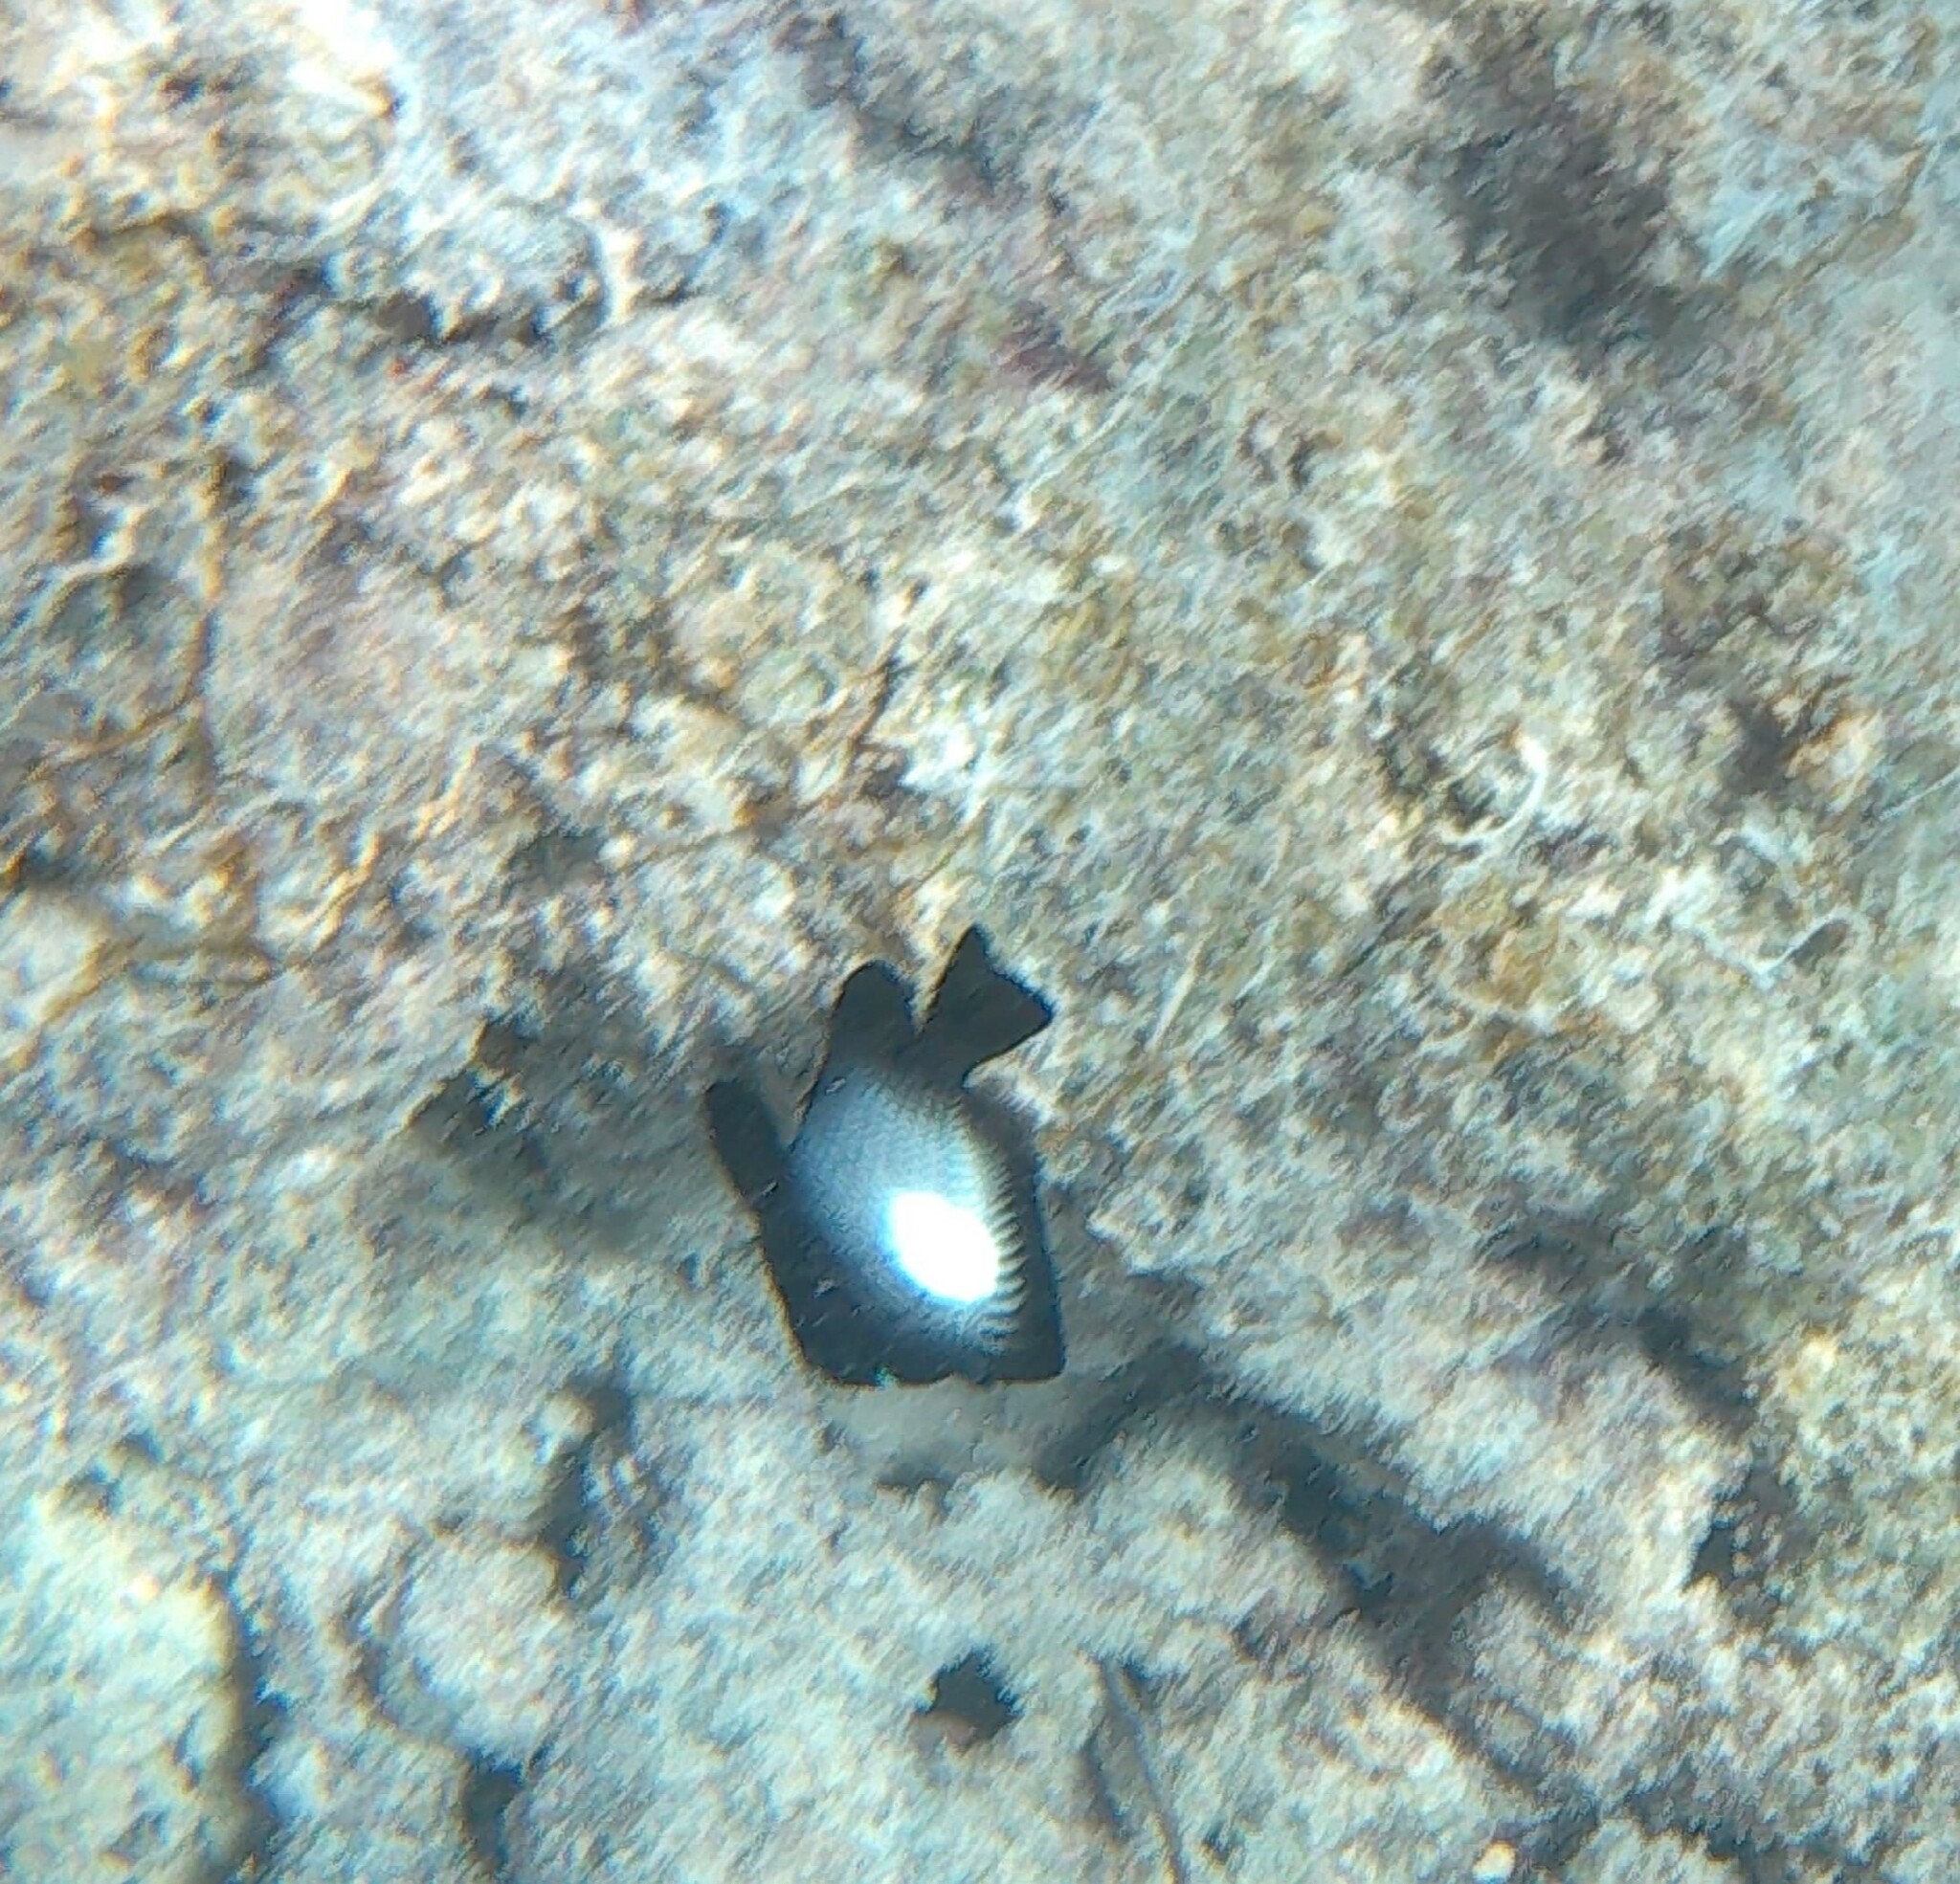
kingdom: Animalia
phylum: Chordata
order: Perciformes
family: Pomacentridae
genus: Dascyllus
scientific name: Dascyllus albisella
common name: Hawaiian dascyllus
